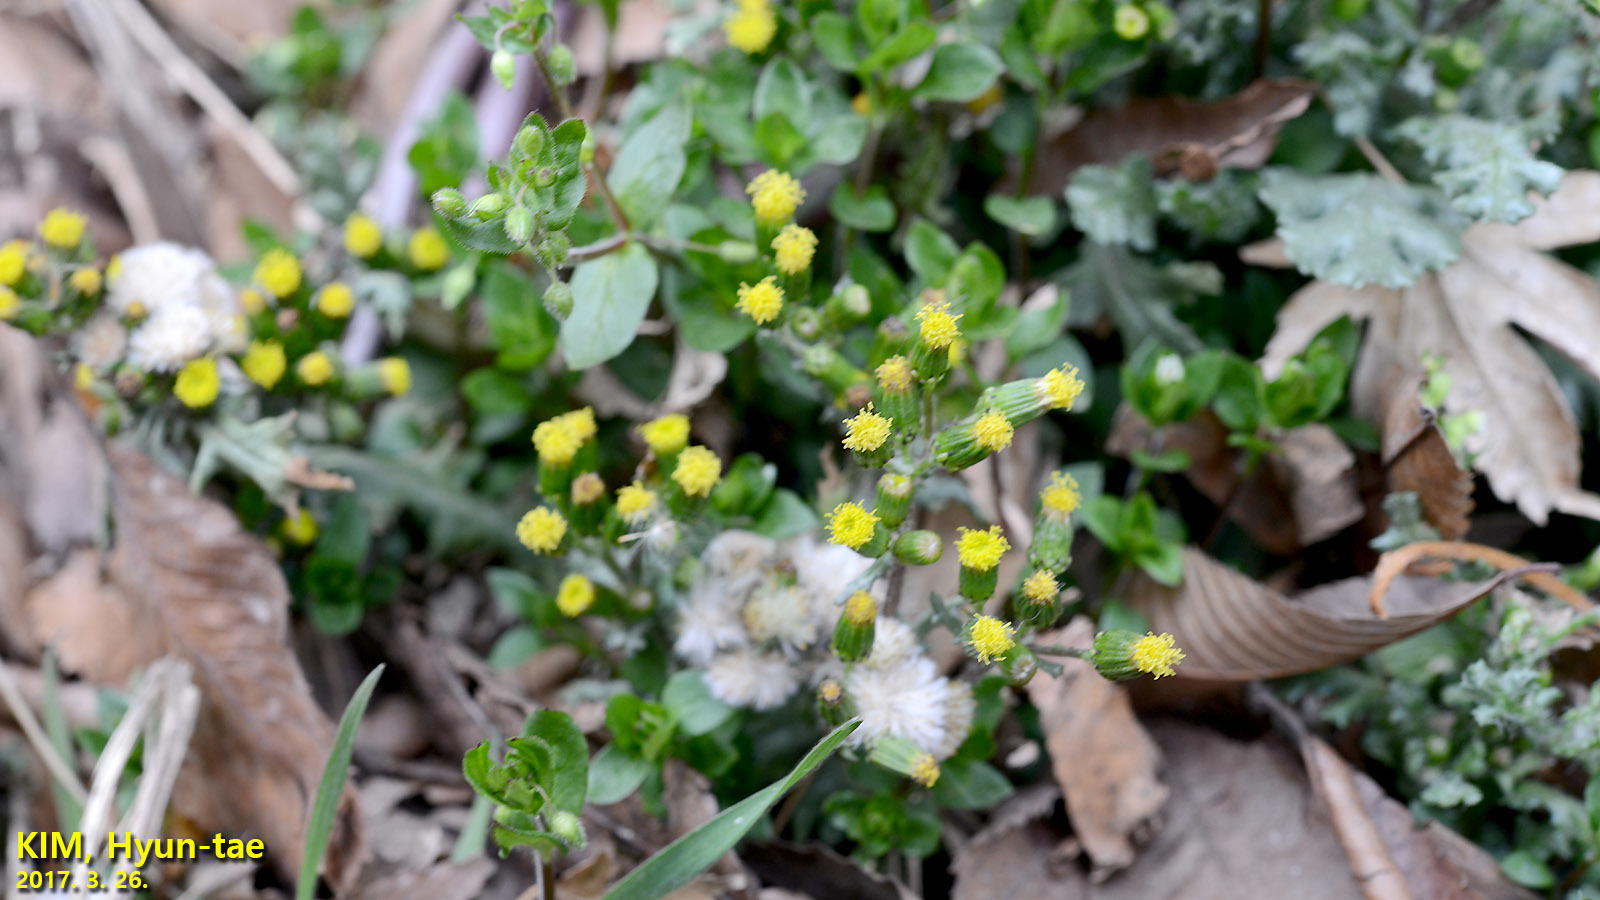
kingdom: Plantae
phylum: Tracheophyta
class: Magnoliopsida
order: Asterales
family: Asteraceae
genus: Senecio
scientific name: Senecio vulgaris
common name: Old-man-in-the-spring
